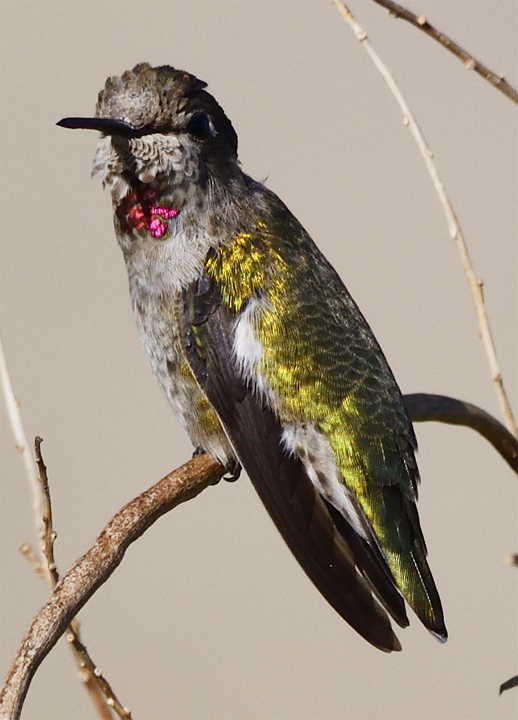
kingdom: Animalia
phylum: Chordata
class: Aves
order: Apodiformes
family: Trochilidae
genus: Calypte
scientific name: Calypte anna
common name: Anna's hummingbird
